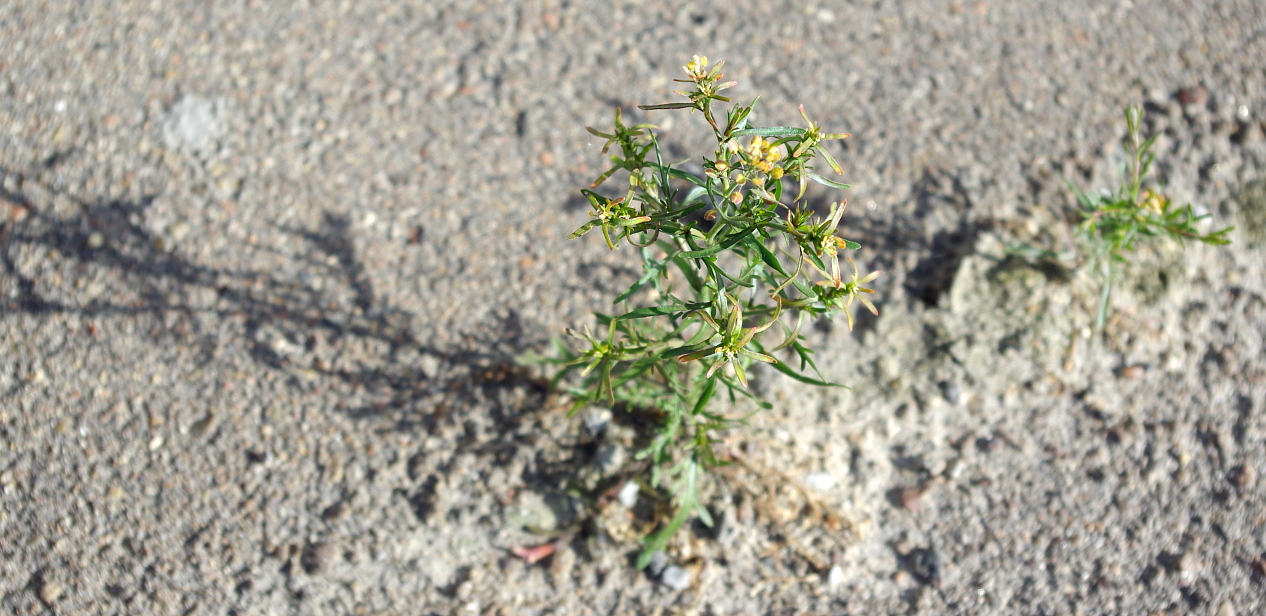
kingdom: Plantae
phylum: Tracheophyta
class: Magnoliopsida
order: Brassicales
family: Brassicaceae
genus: Lepidium
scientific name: Lepidium ruderale
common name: Narrow-leaved pepperwort
